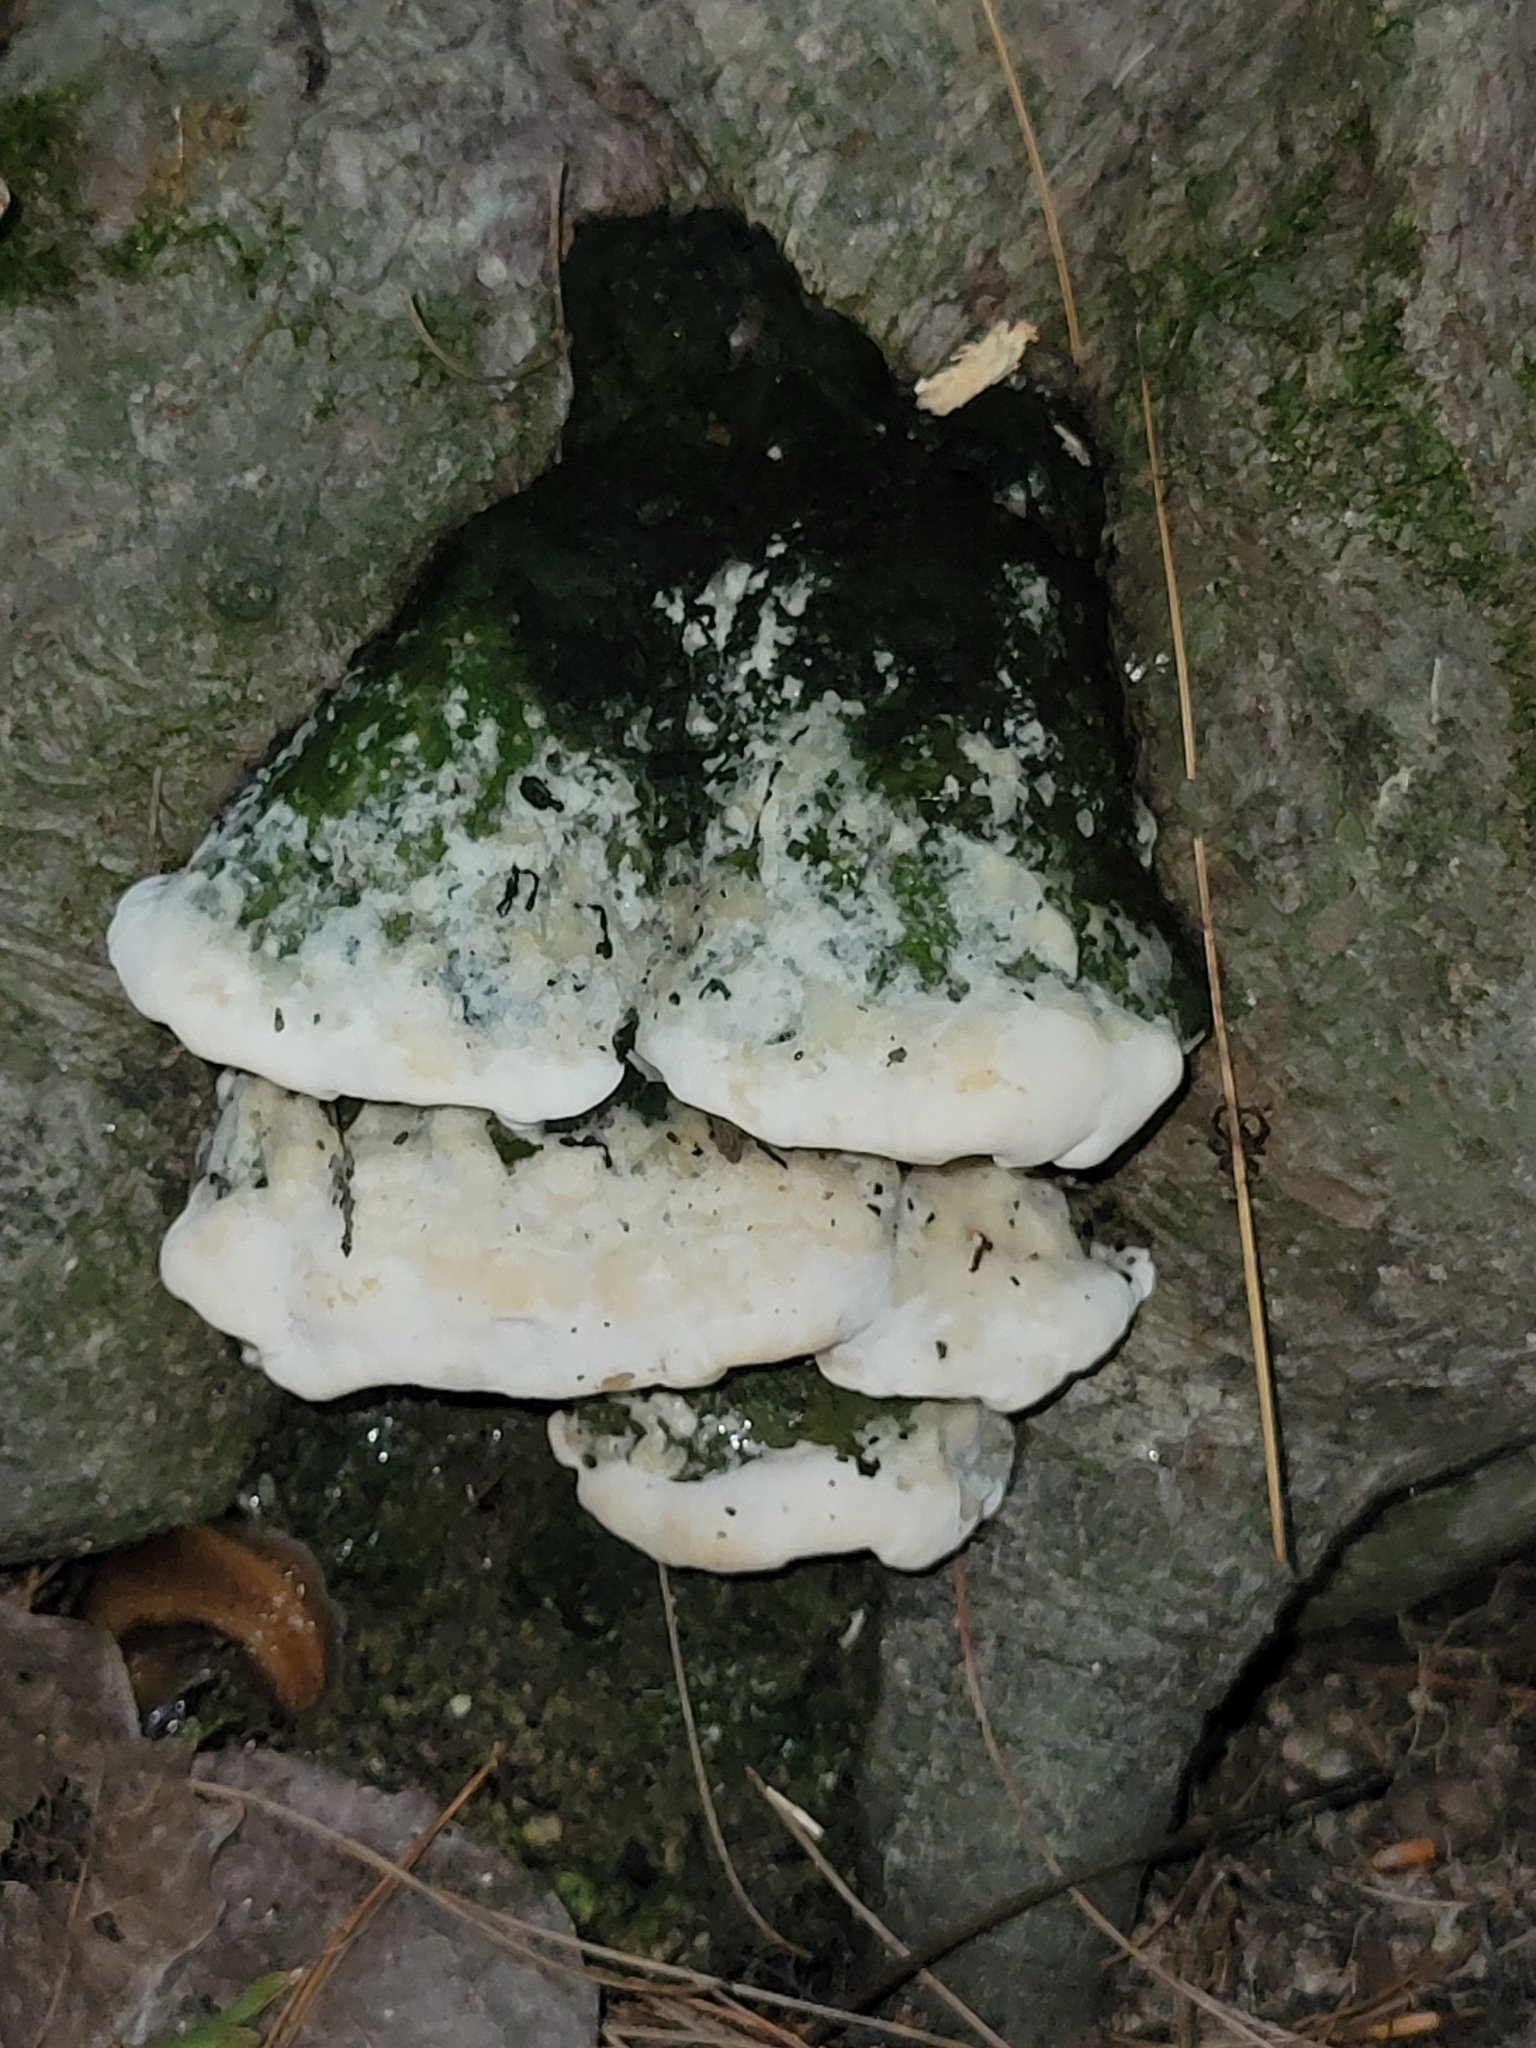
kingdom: Fungi
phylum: Basidiomycota
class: Agaricomycetes
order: Hymenochaetales
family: Oxyporaceae
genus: Oxyporus
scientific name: Oxyporus populinus
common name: Poplar bracket
